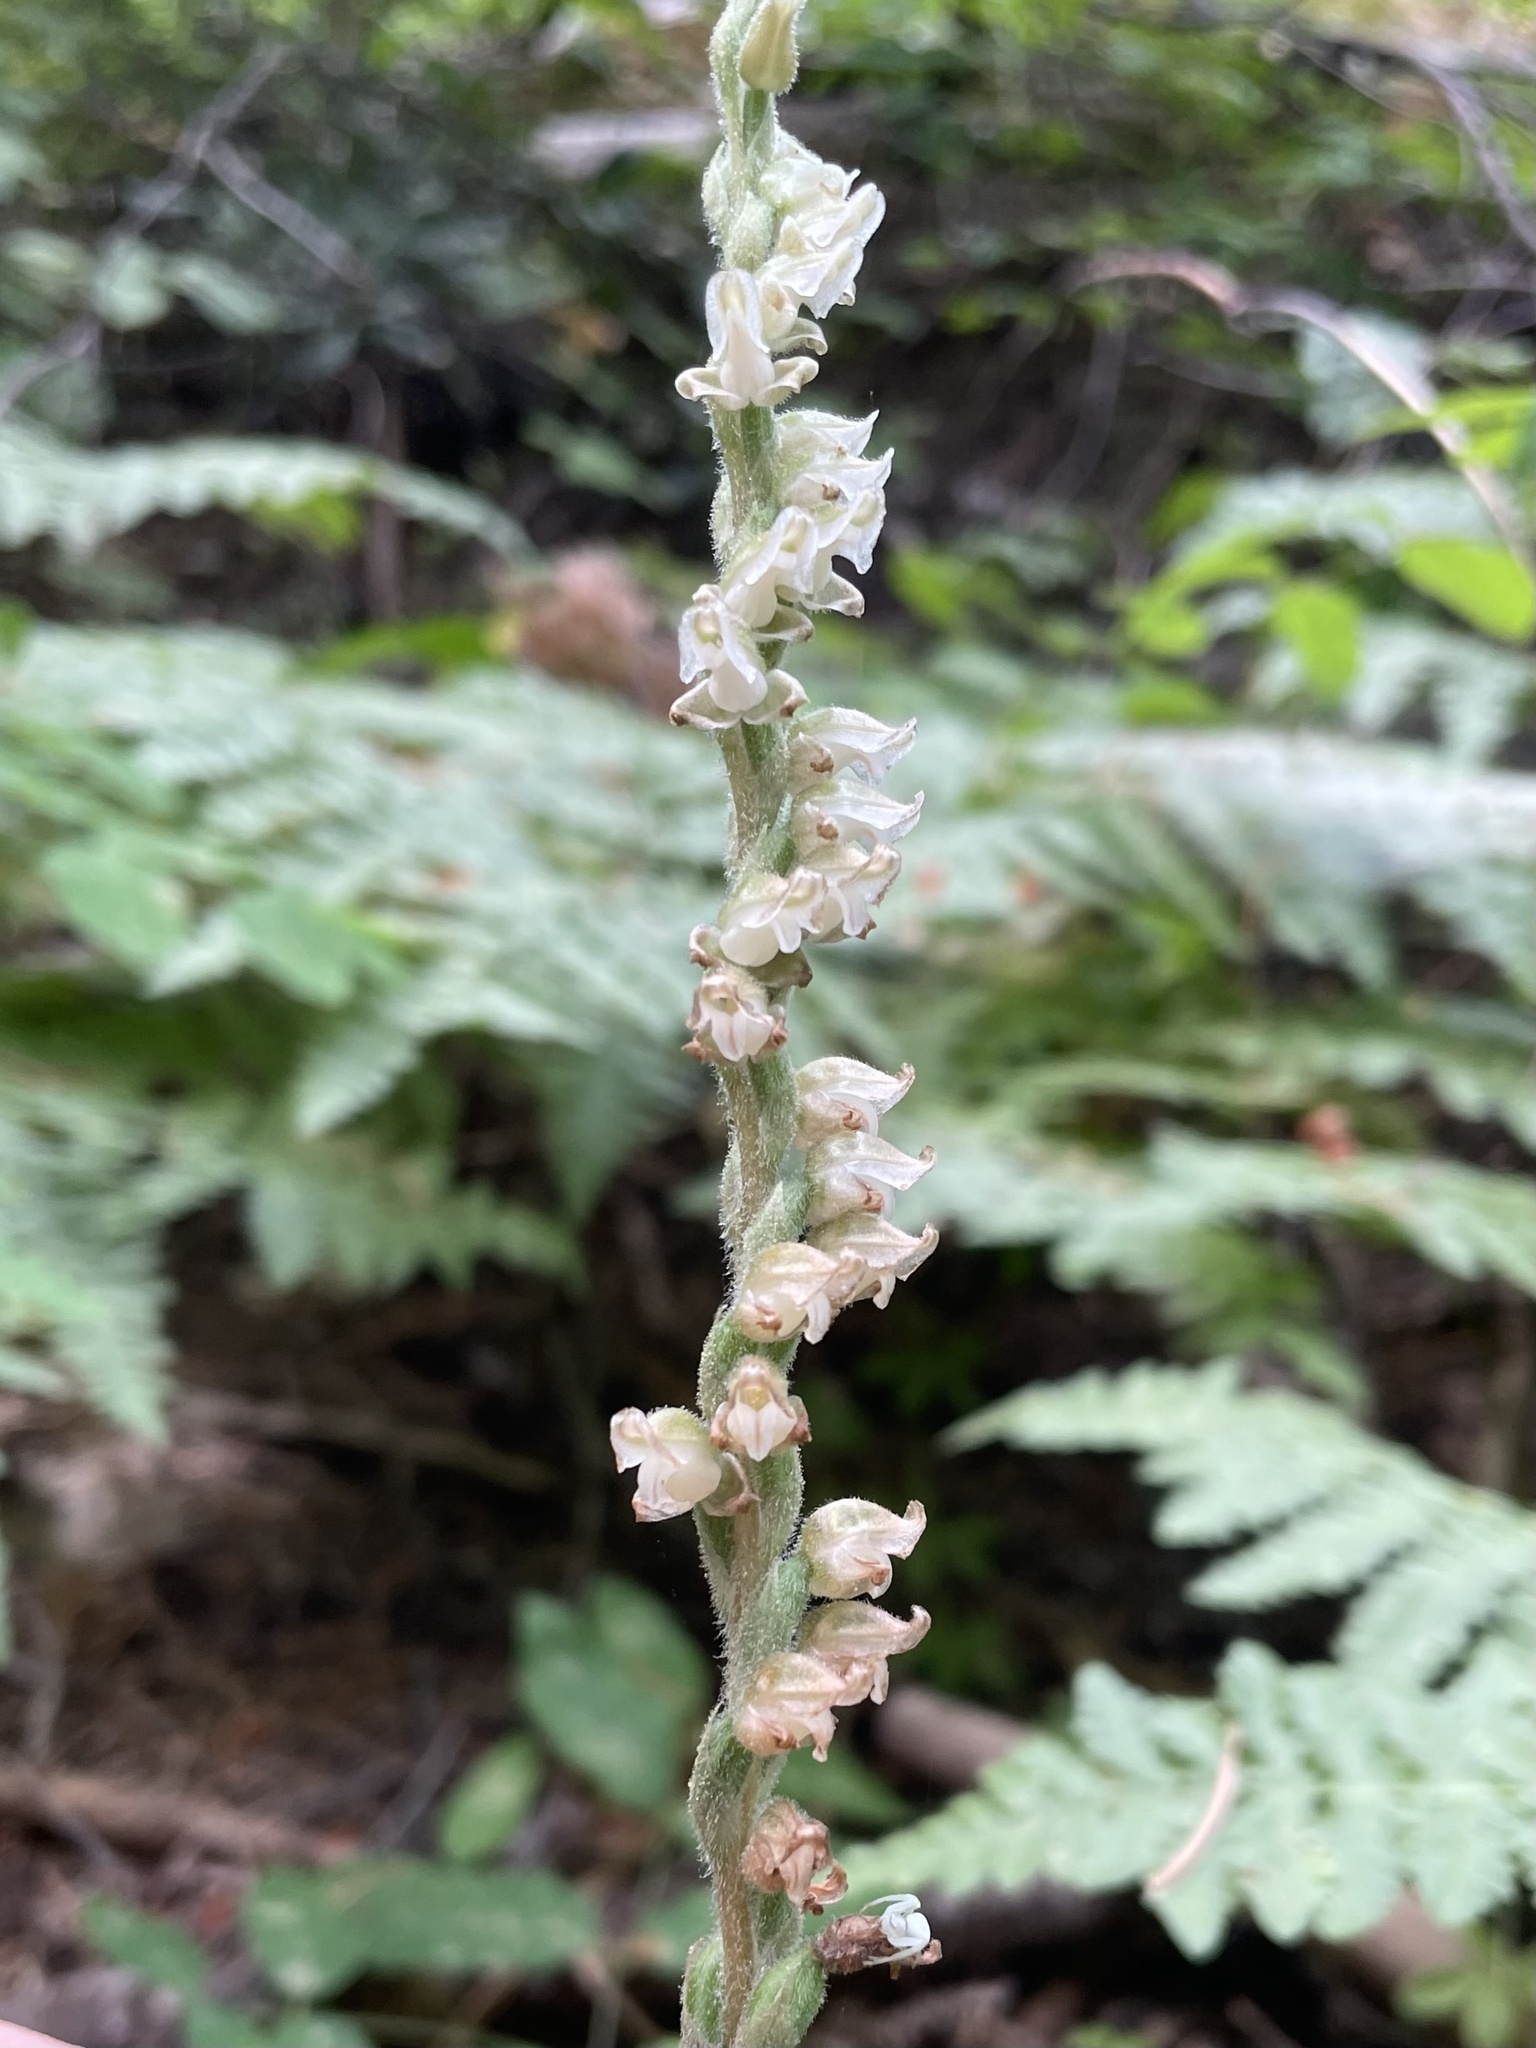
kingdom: Plantae
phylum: Tracheophyta
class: Liliopsida
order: Asparagales
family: Orchidaceae
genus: Goodyera
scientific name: Goodyera oblongifolia
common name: Giant rattlesnake-plantain
